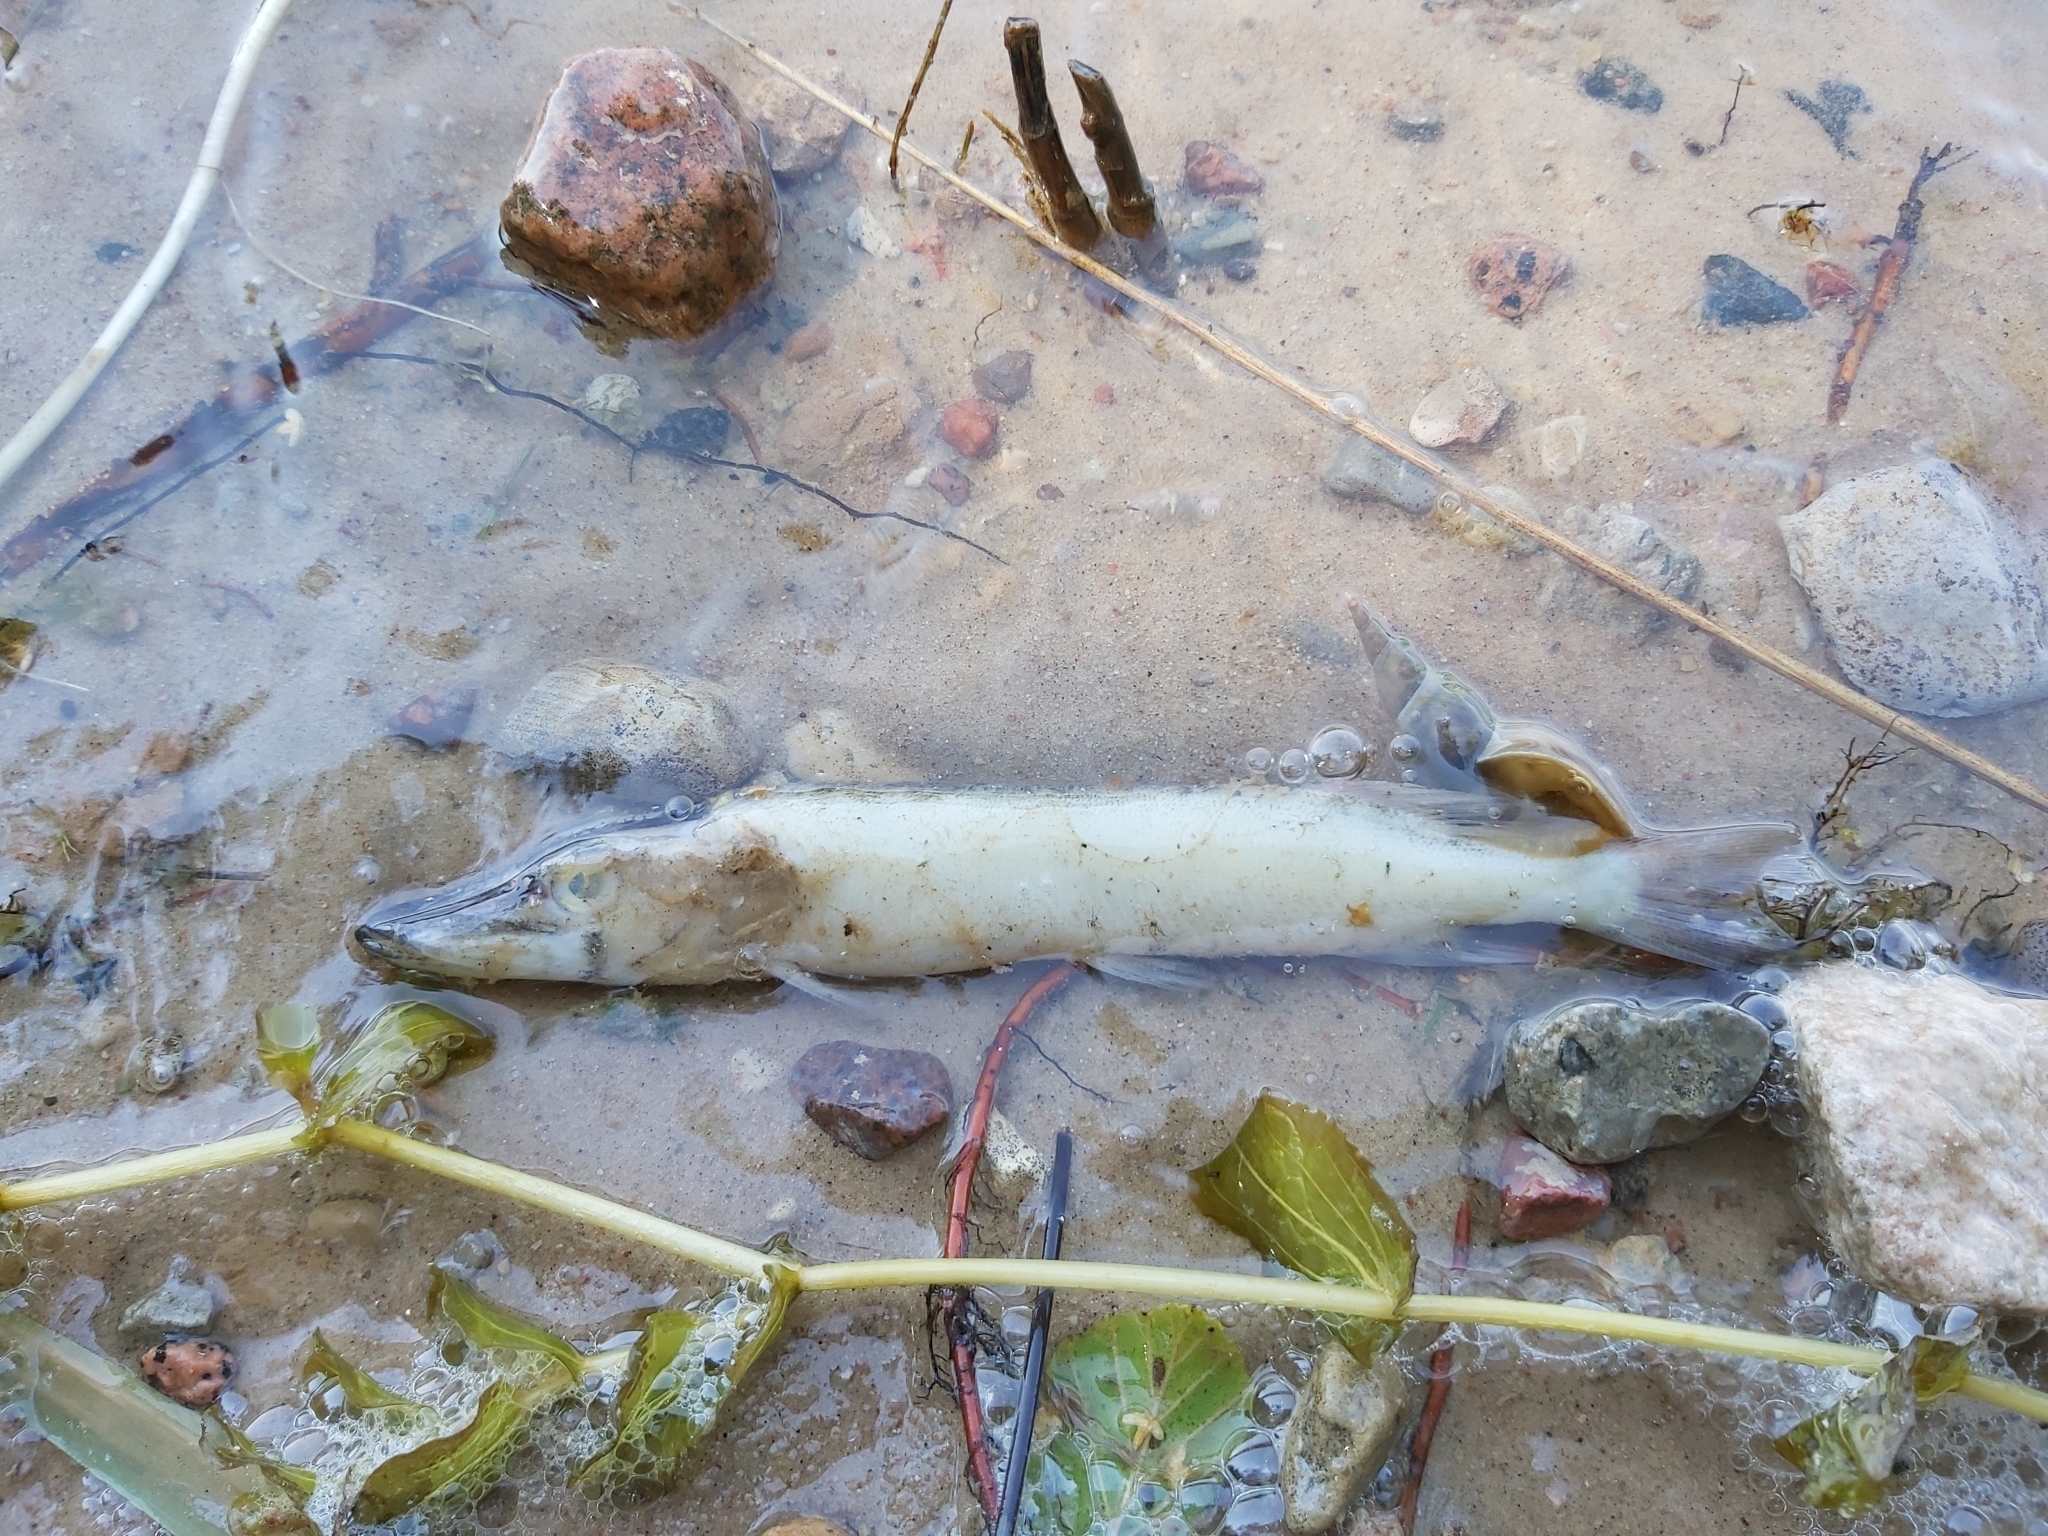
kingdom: Animalia
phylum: Chordata
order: Esociformes
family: Esocidae
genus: Esox
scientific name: Esox lucius
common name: Northern pike
